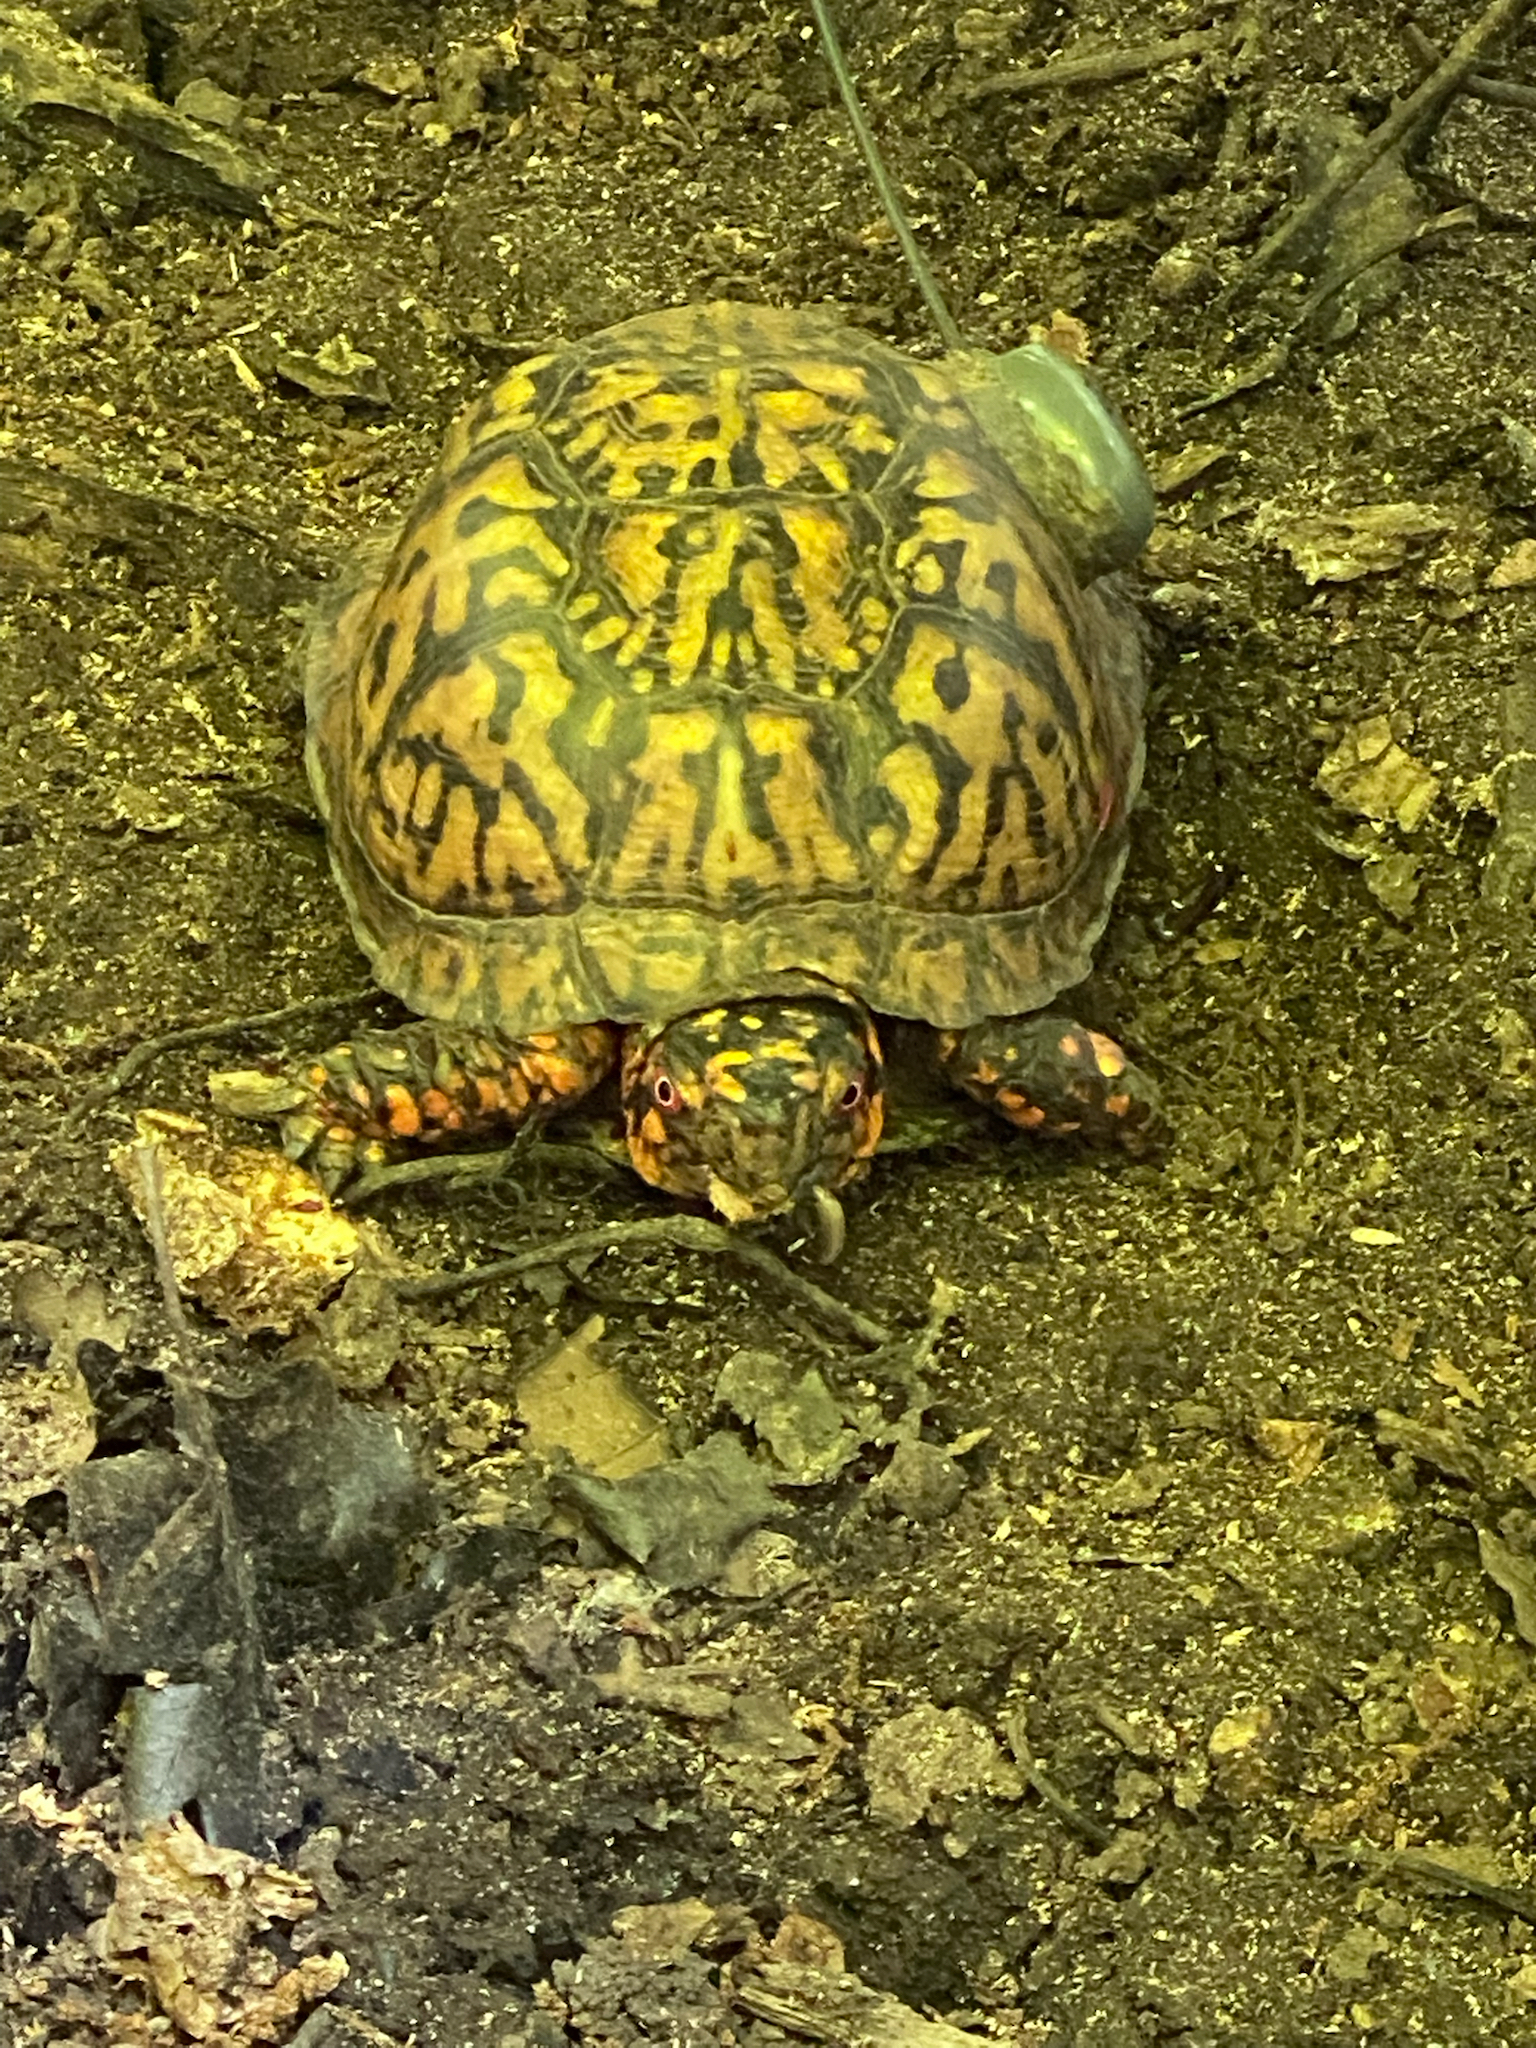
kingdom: Animalia
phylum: Chordata
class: Testudines
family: Emydidae
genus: Terrapene
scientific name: Terrapene carolina
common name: Common box turtle
